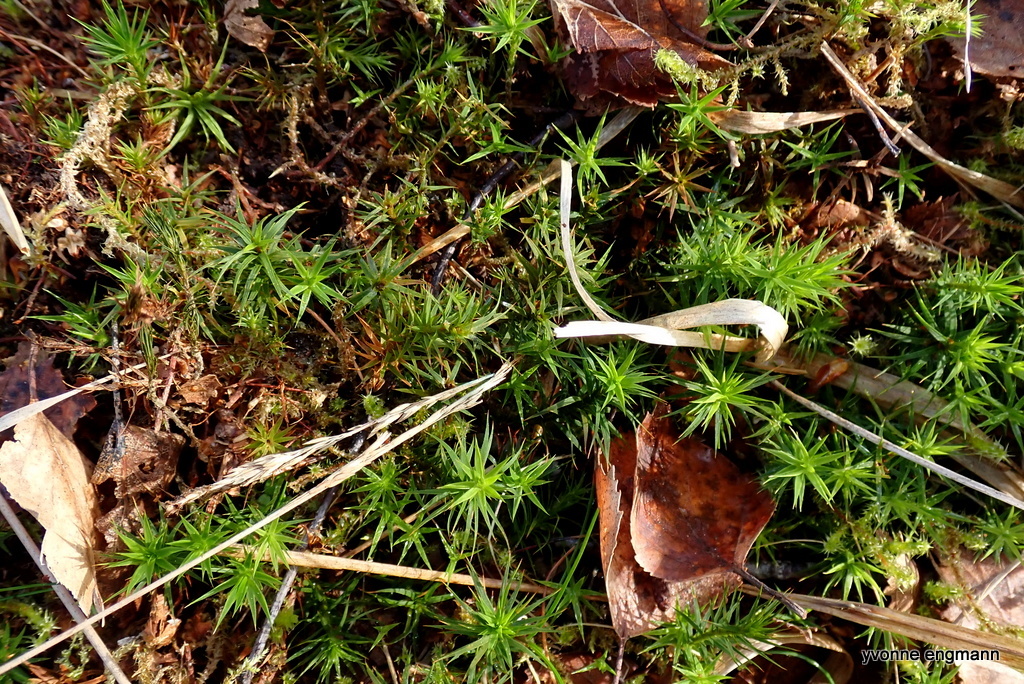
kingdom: Plantae
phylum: Bryophyta
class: Polytrichopsida
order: Polytrichales
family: Polytrichaceae
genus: Polytrichum
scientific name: Polytrichum commune
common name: Common haircap
